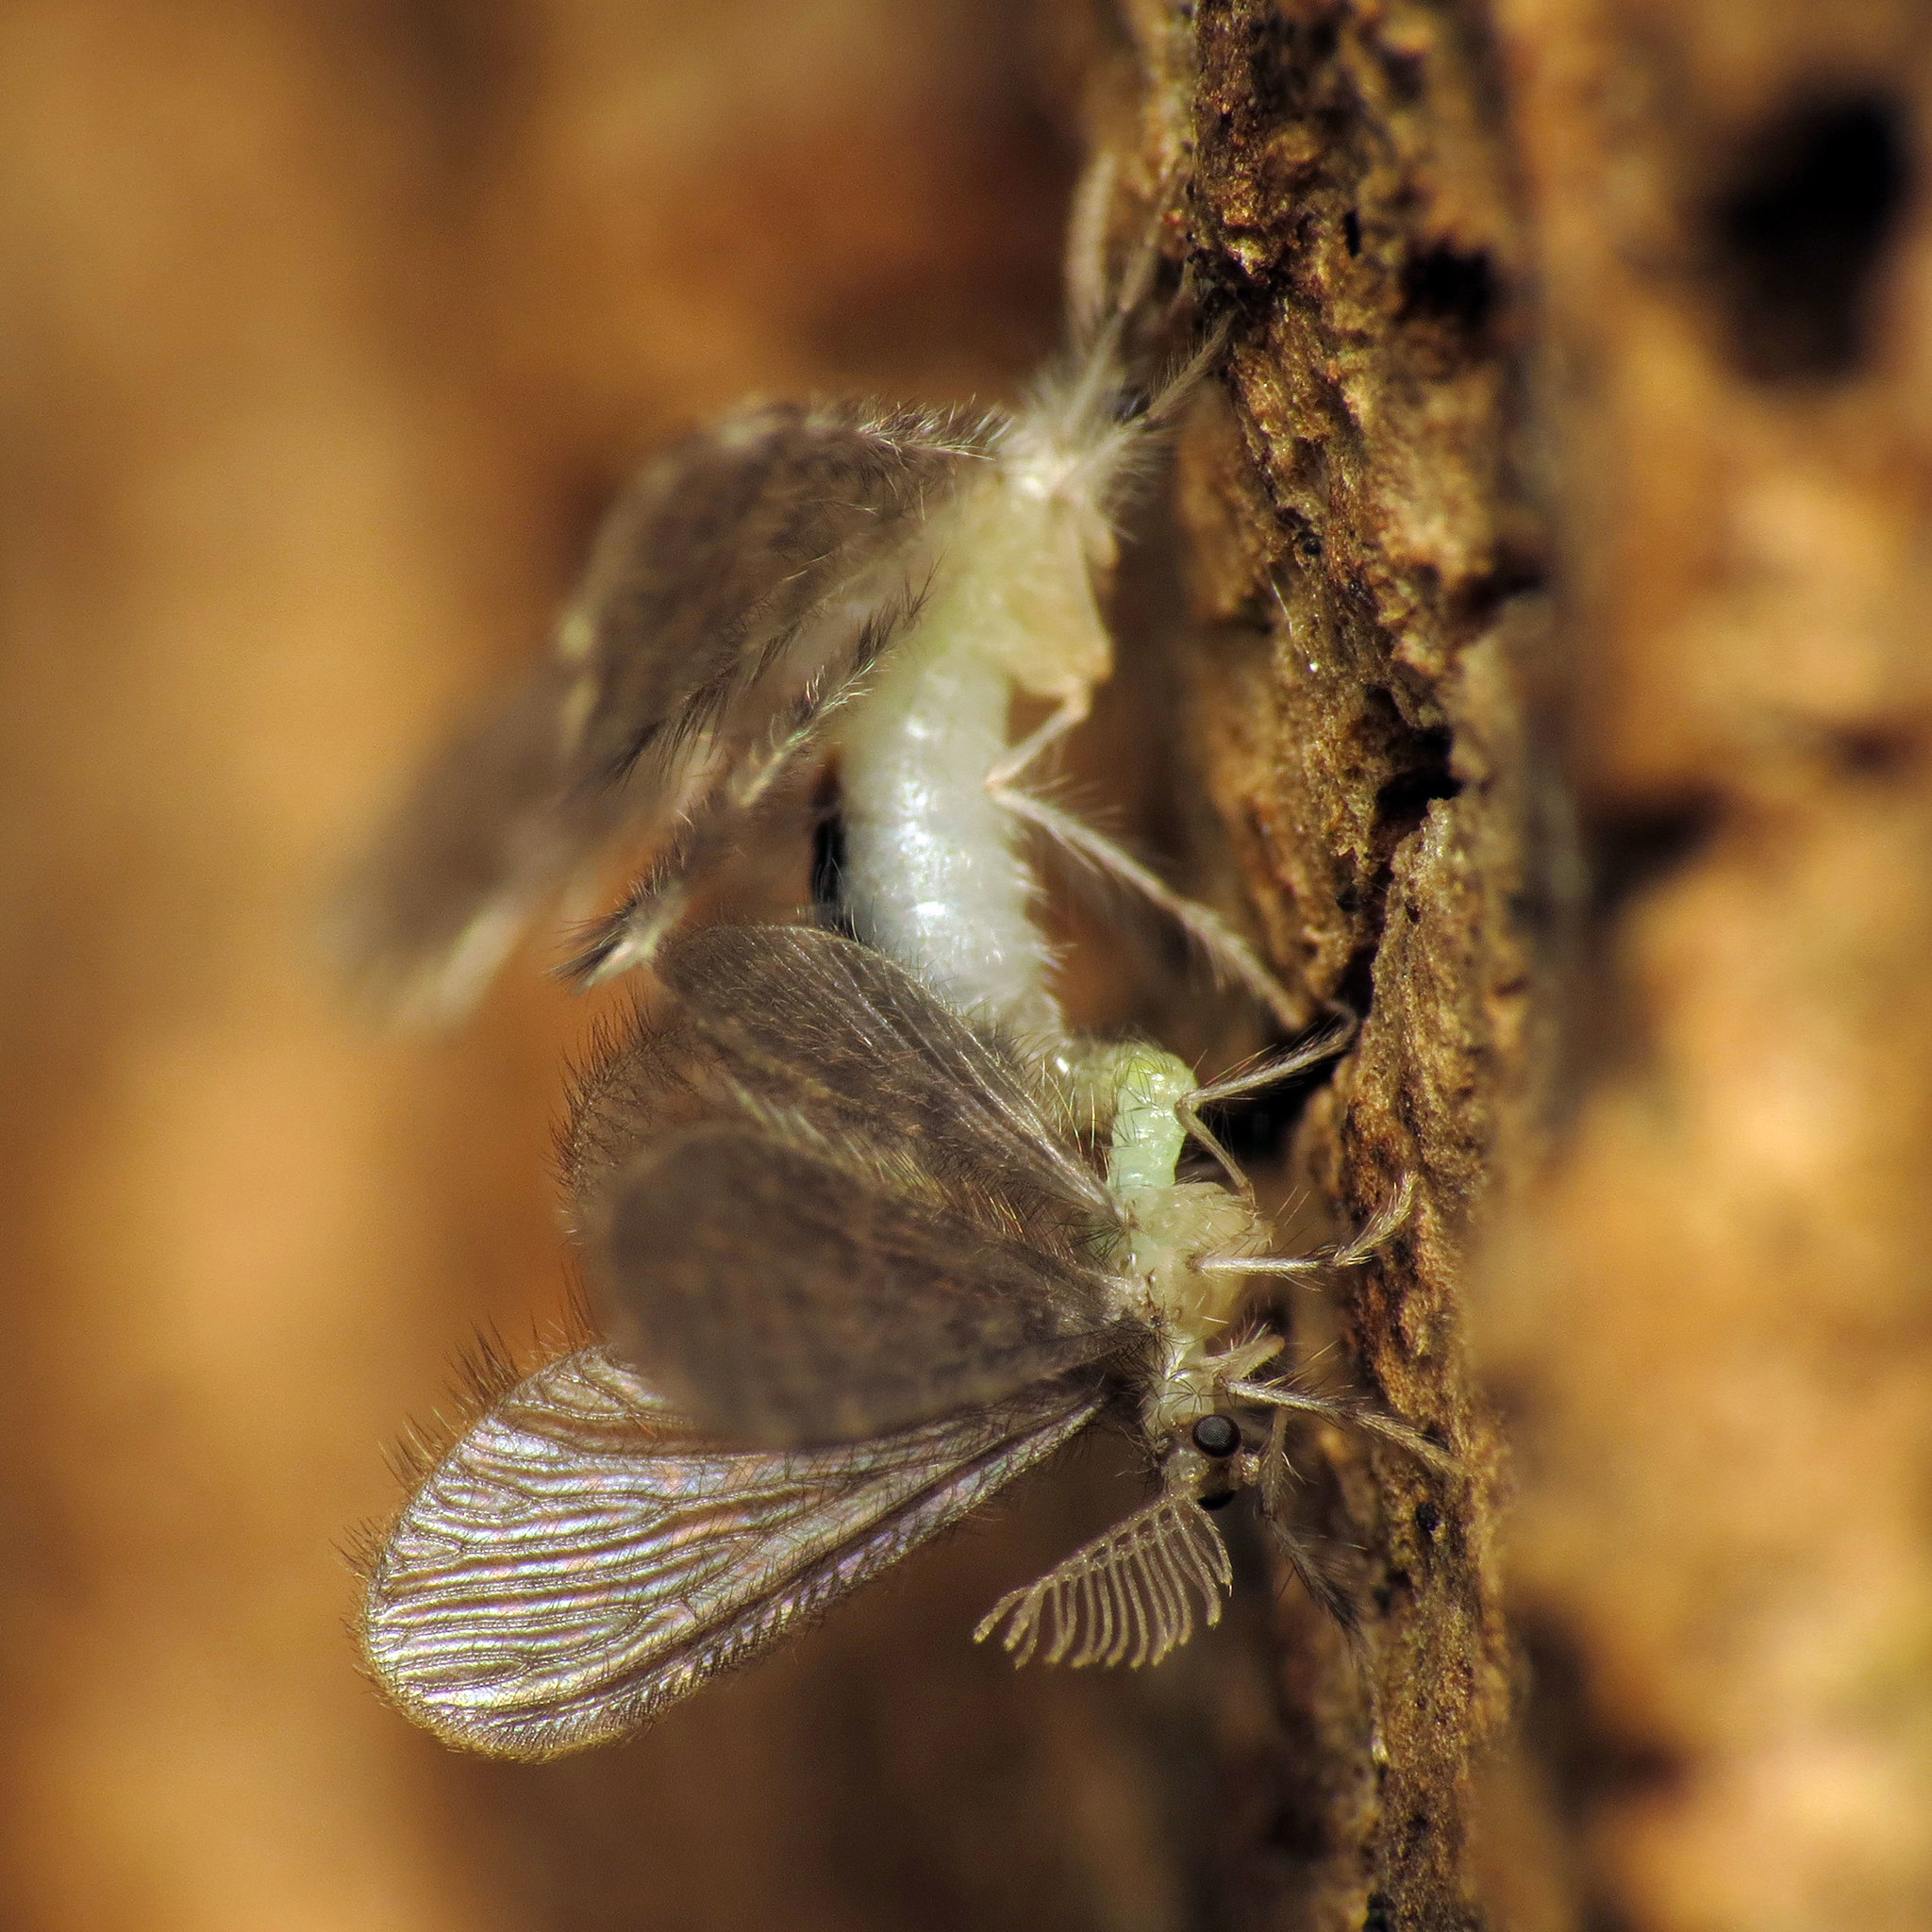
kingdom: Animalia
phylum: Arthropoda
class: Insecta
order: Neuroptera
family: Dilaridae
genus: Nallachius
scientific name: Nallachius americanus
